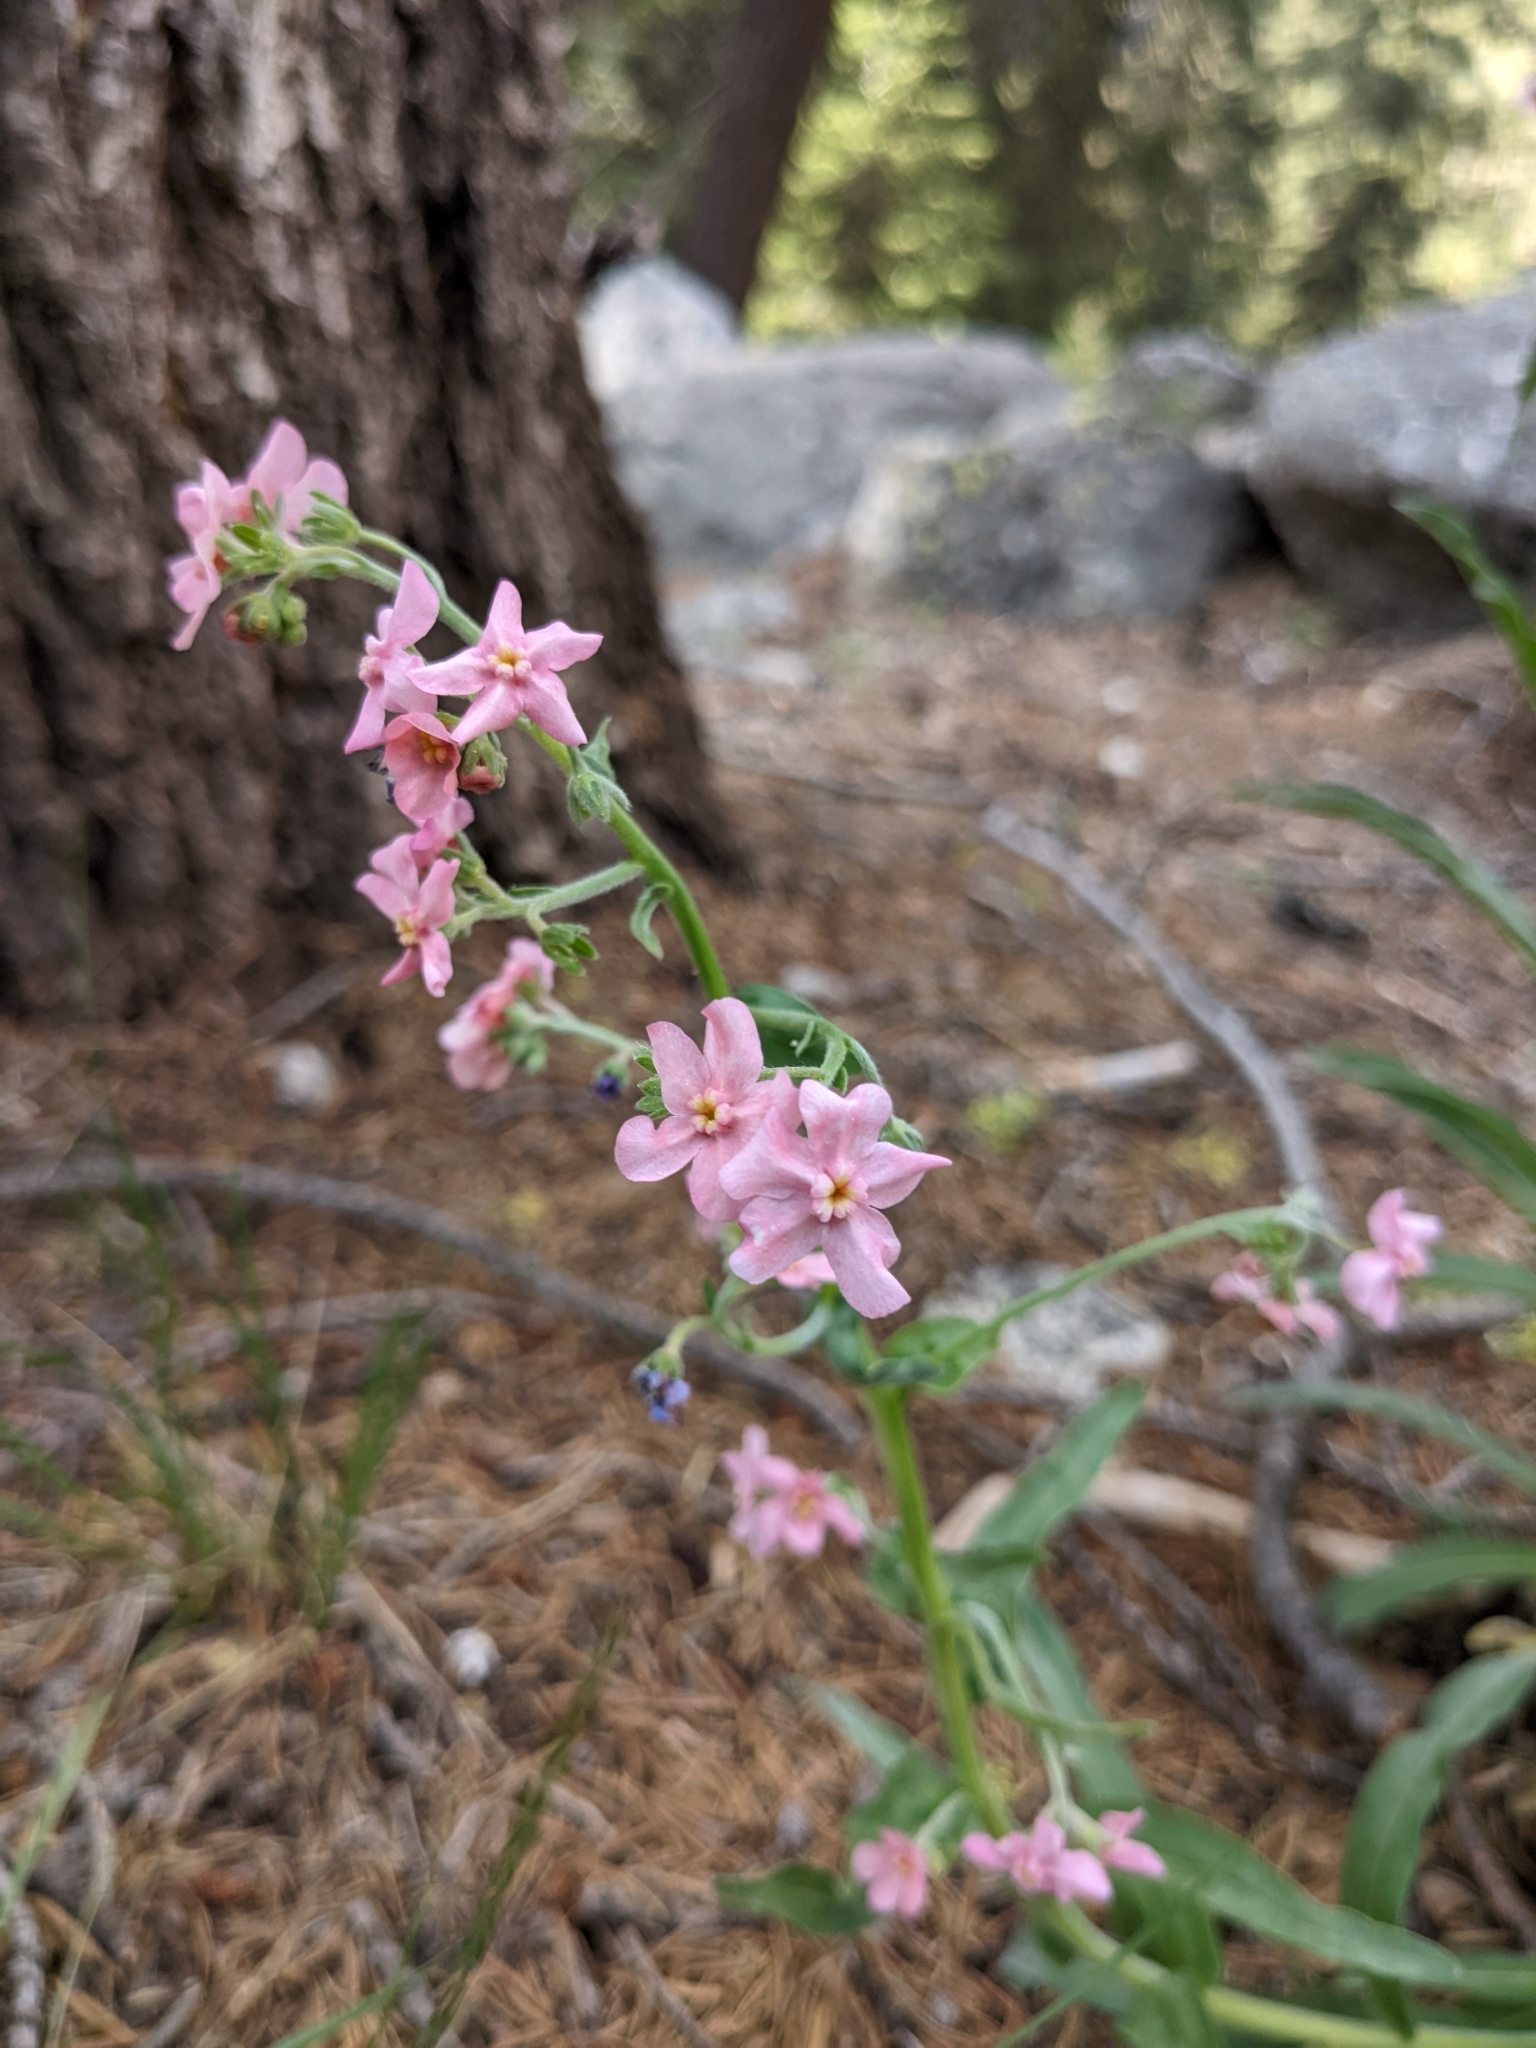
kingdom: Plantae
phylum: Tracheophyta
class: Magnoliopsida
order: Boraginales
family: Boraginaceae
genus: Hackelia
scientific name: Hackelia mundula
